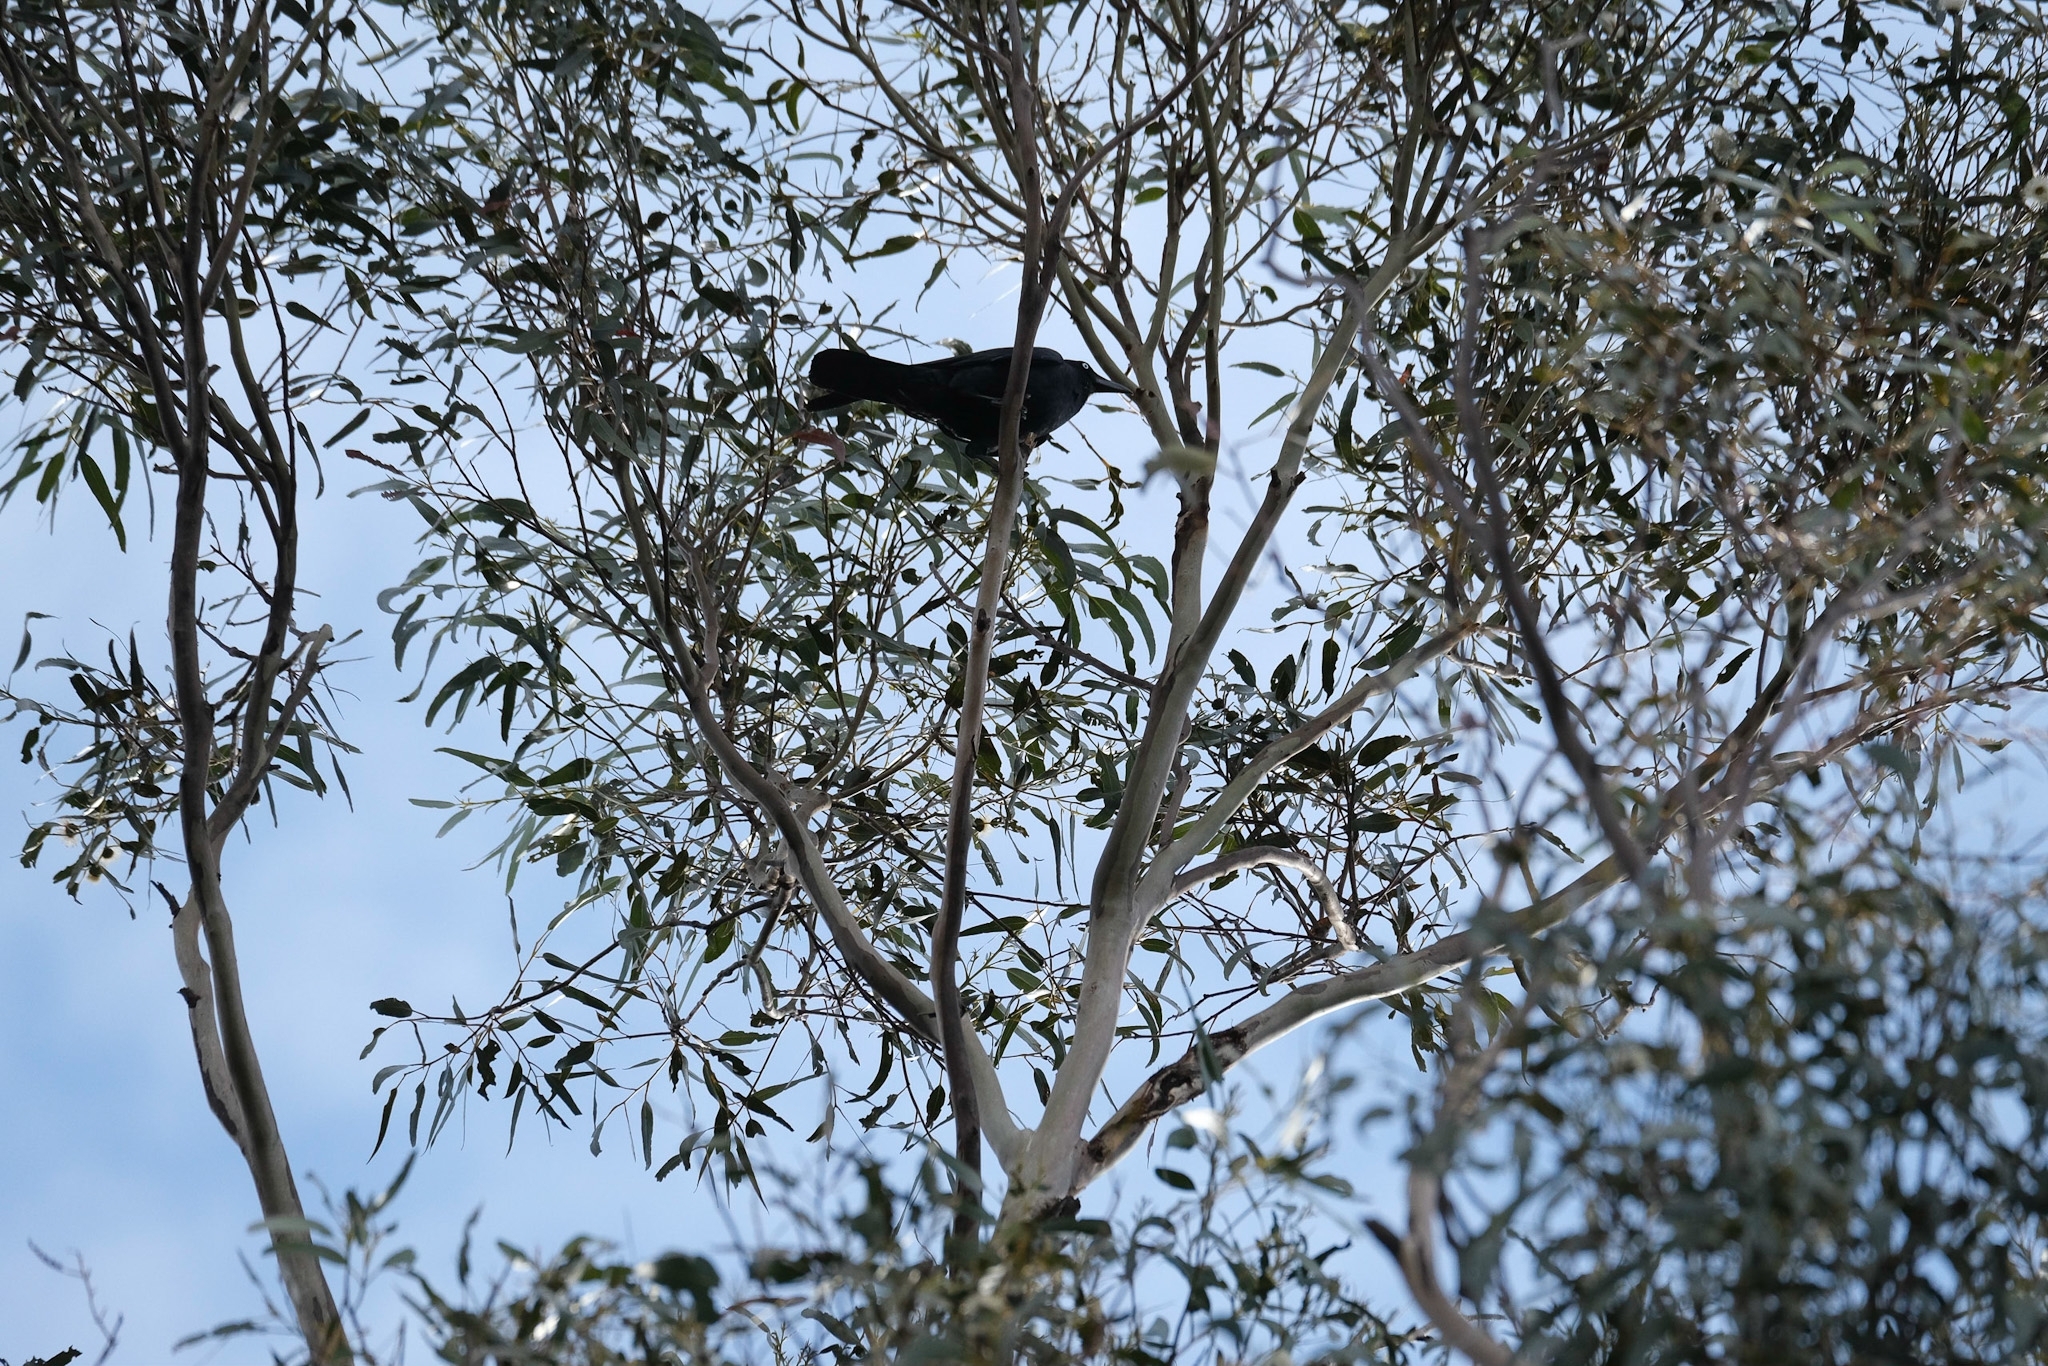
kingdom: Animalia
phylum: Chordata
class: Aves
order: Passeriformes
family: Corvidae
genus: Corvus
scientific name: Corvus tasmanicus
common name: Forest raven
